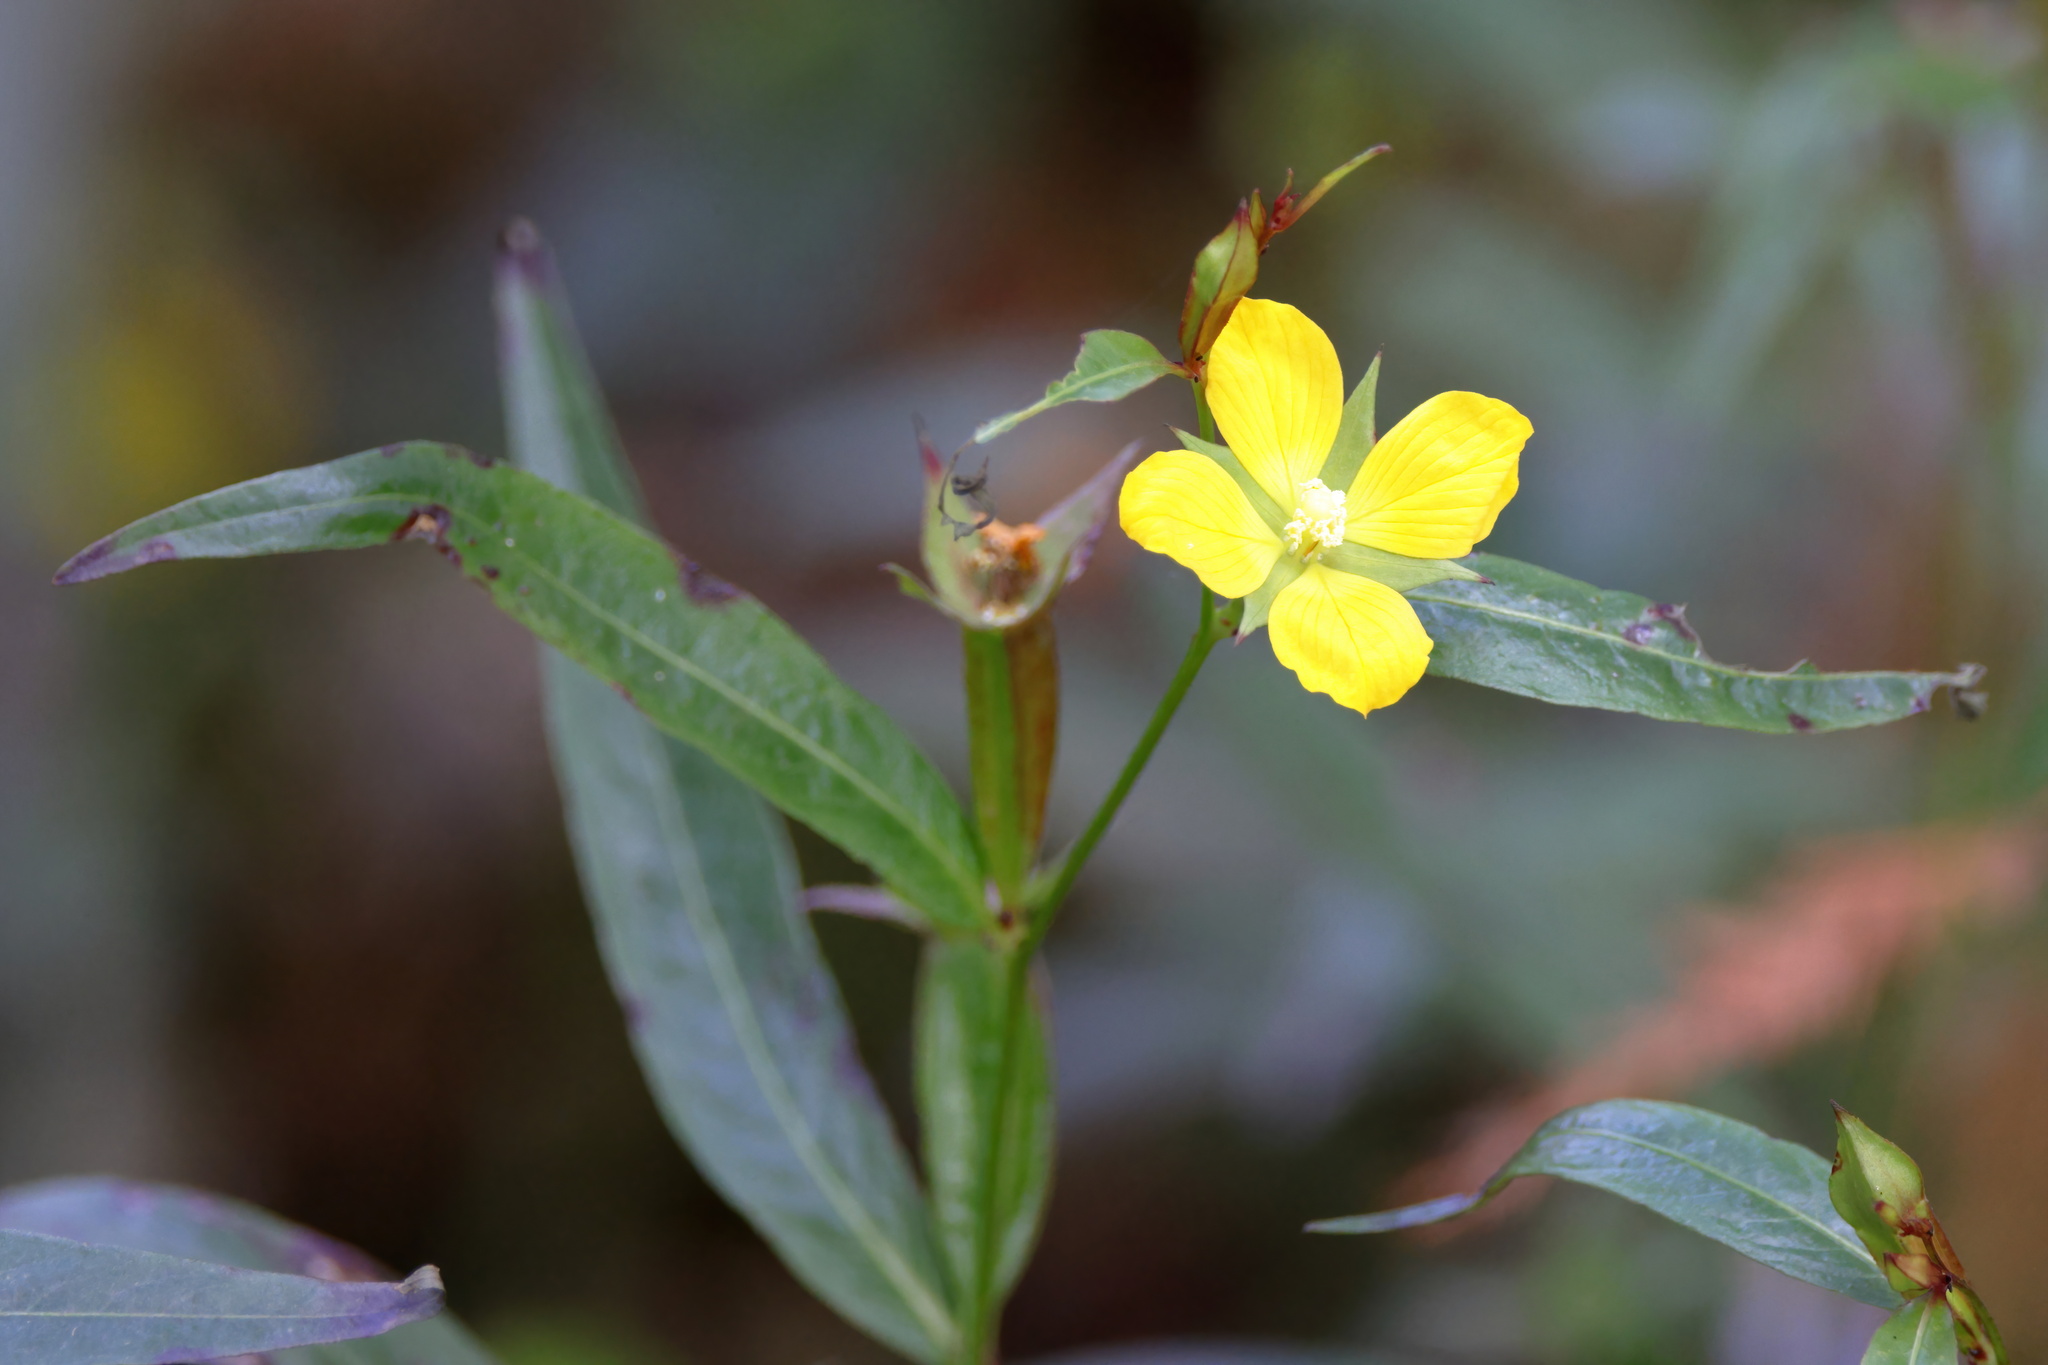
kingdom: Plantae
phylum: Tracheophyta
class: Magnoliopsida
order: Myrtales
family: Onagraceae
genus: Ludwigia
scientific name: Ludwigia decurrens
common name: Winged water-primrose
